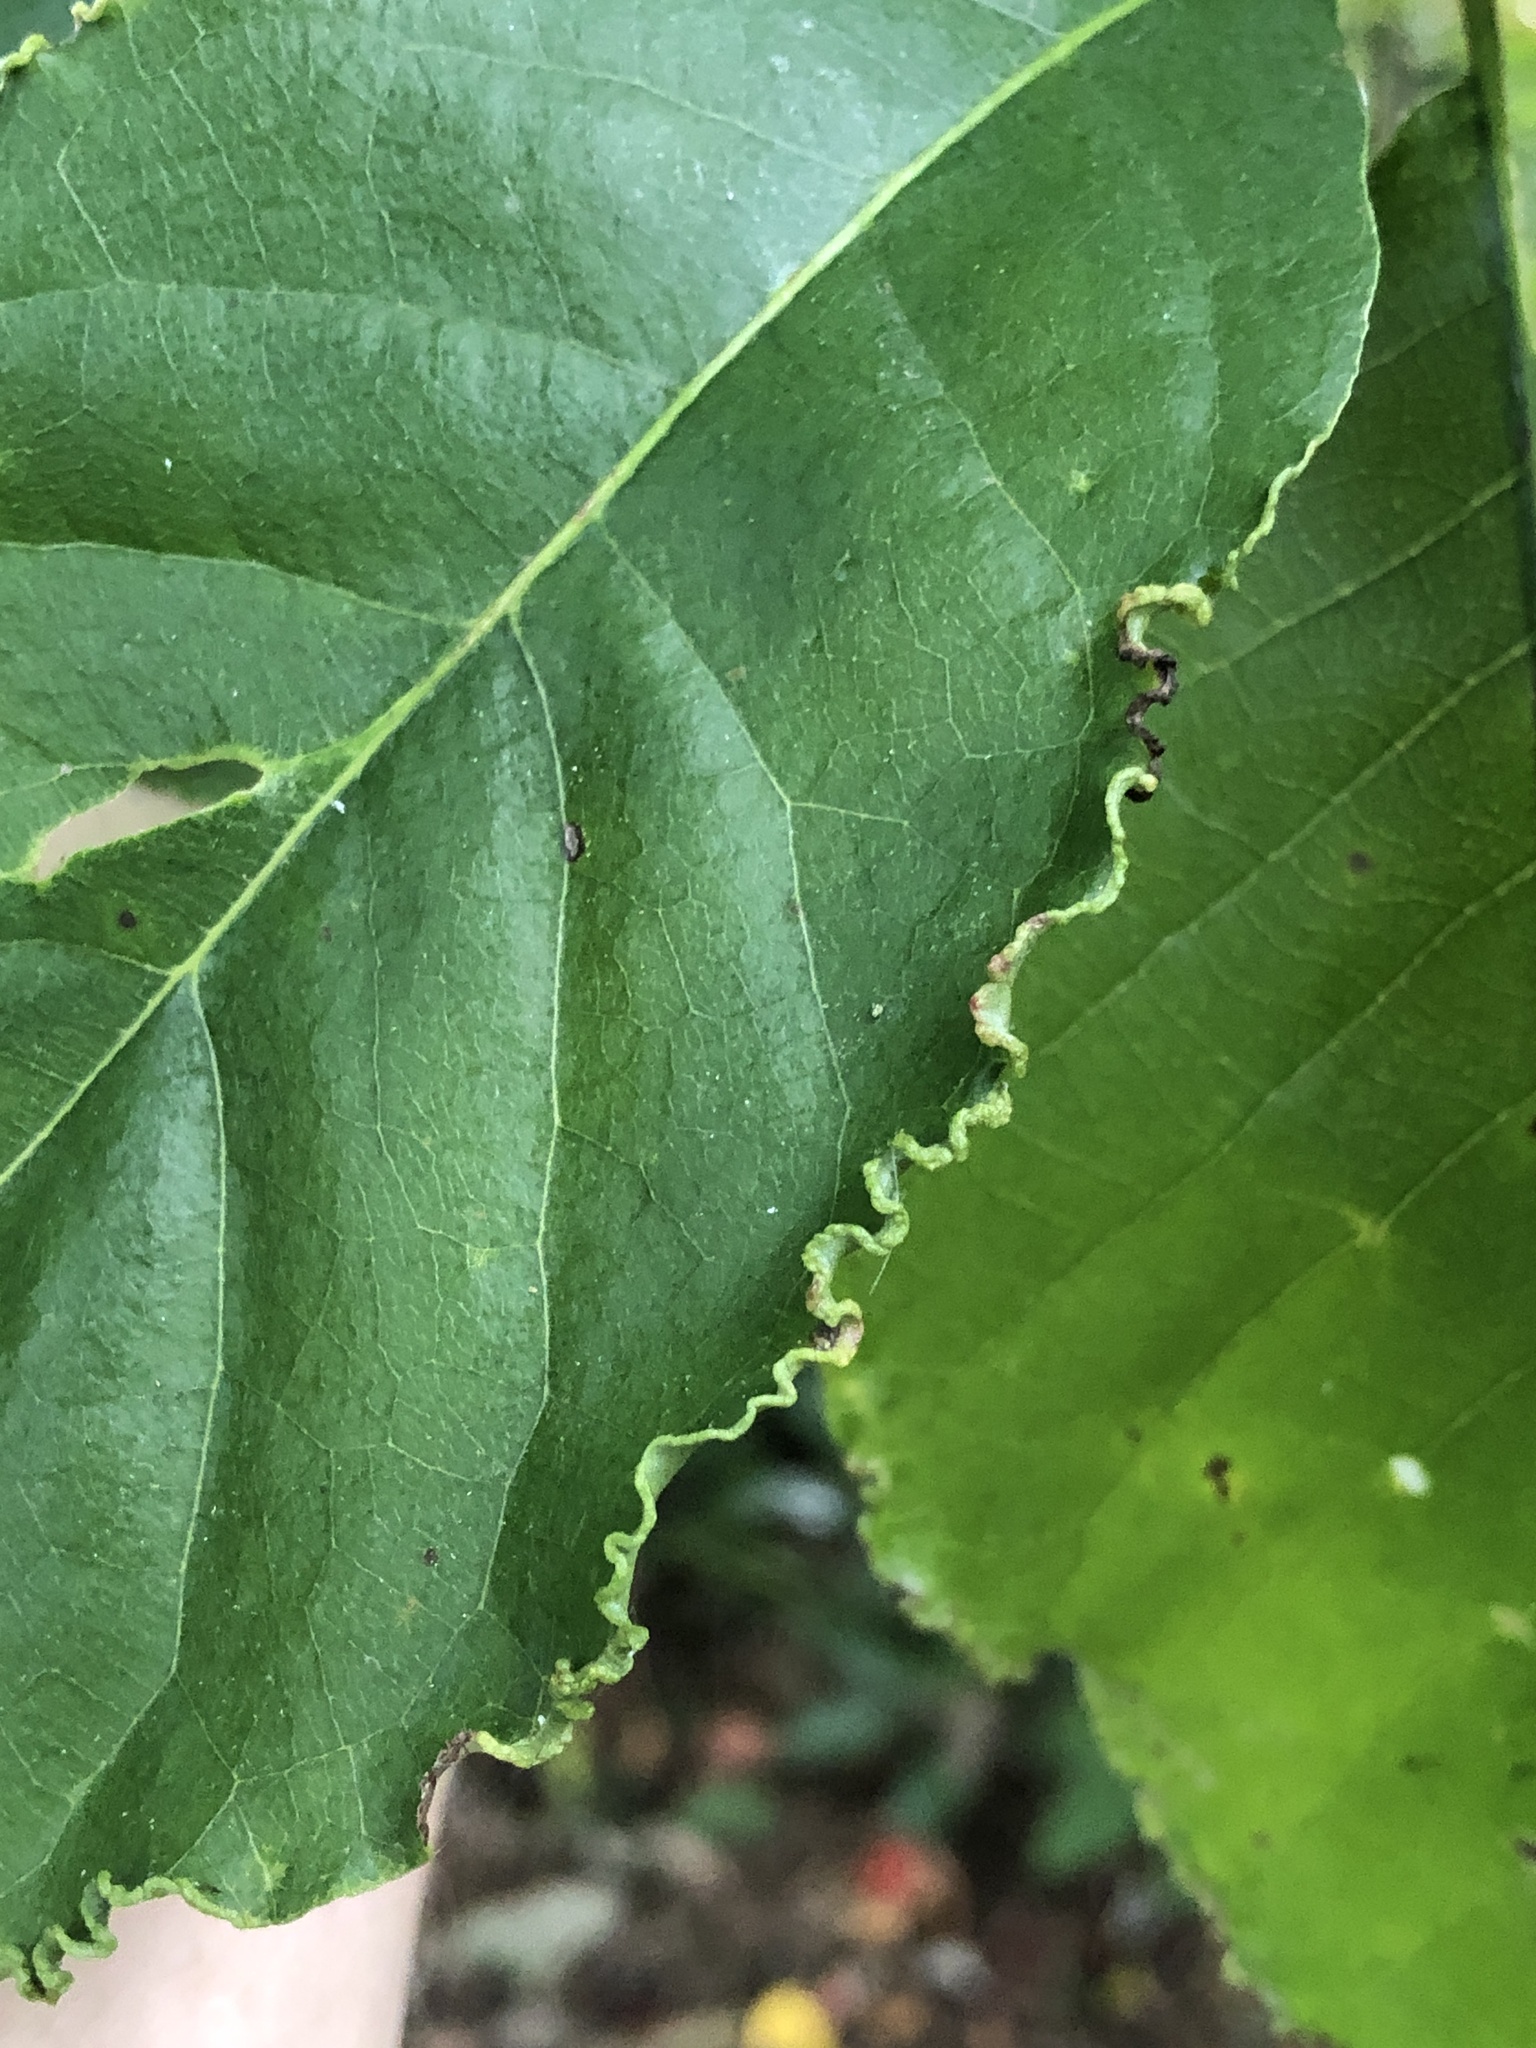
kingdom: Animalia
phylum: Arthropoda
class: Arachnida
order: Trombidiformes
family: Eriophyidae
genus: Aceria
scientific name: Aceria
